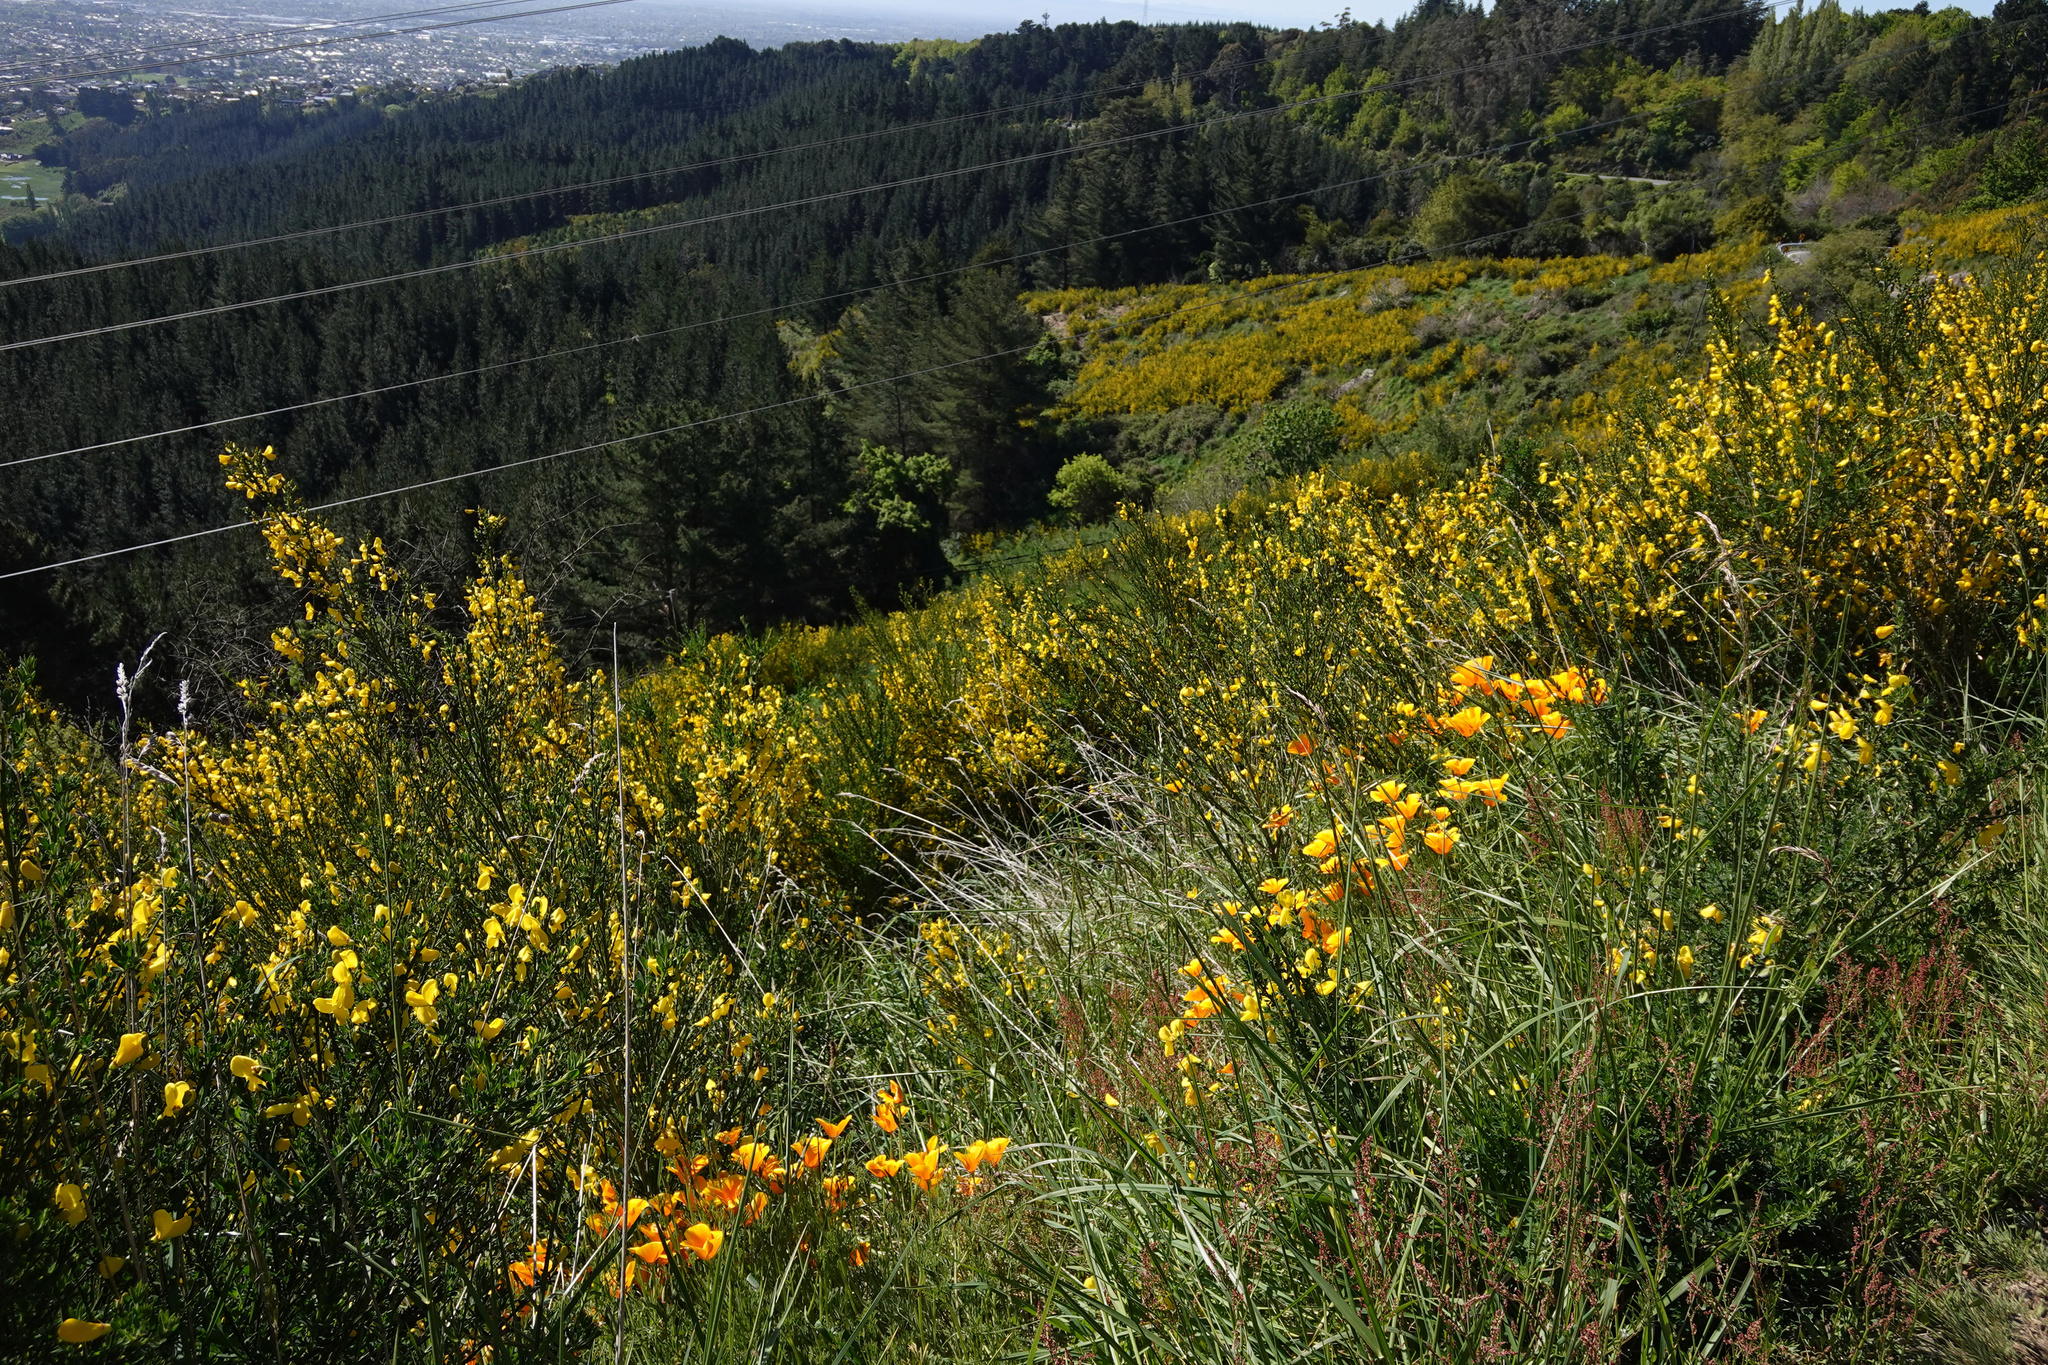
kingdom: Plantae
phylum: Tracheophyta
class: Magnoliopsida
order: Ranunculales
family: Papaveraceae
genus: Eschscholzia
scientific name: Eschscholzia californica
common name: California poppy
